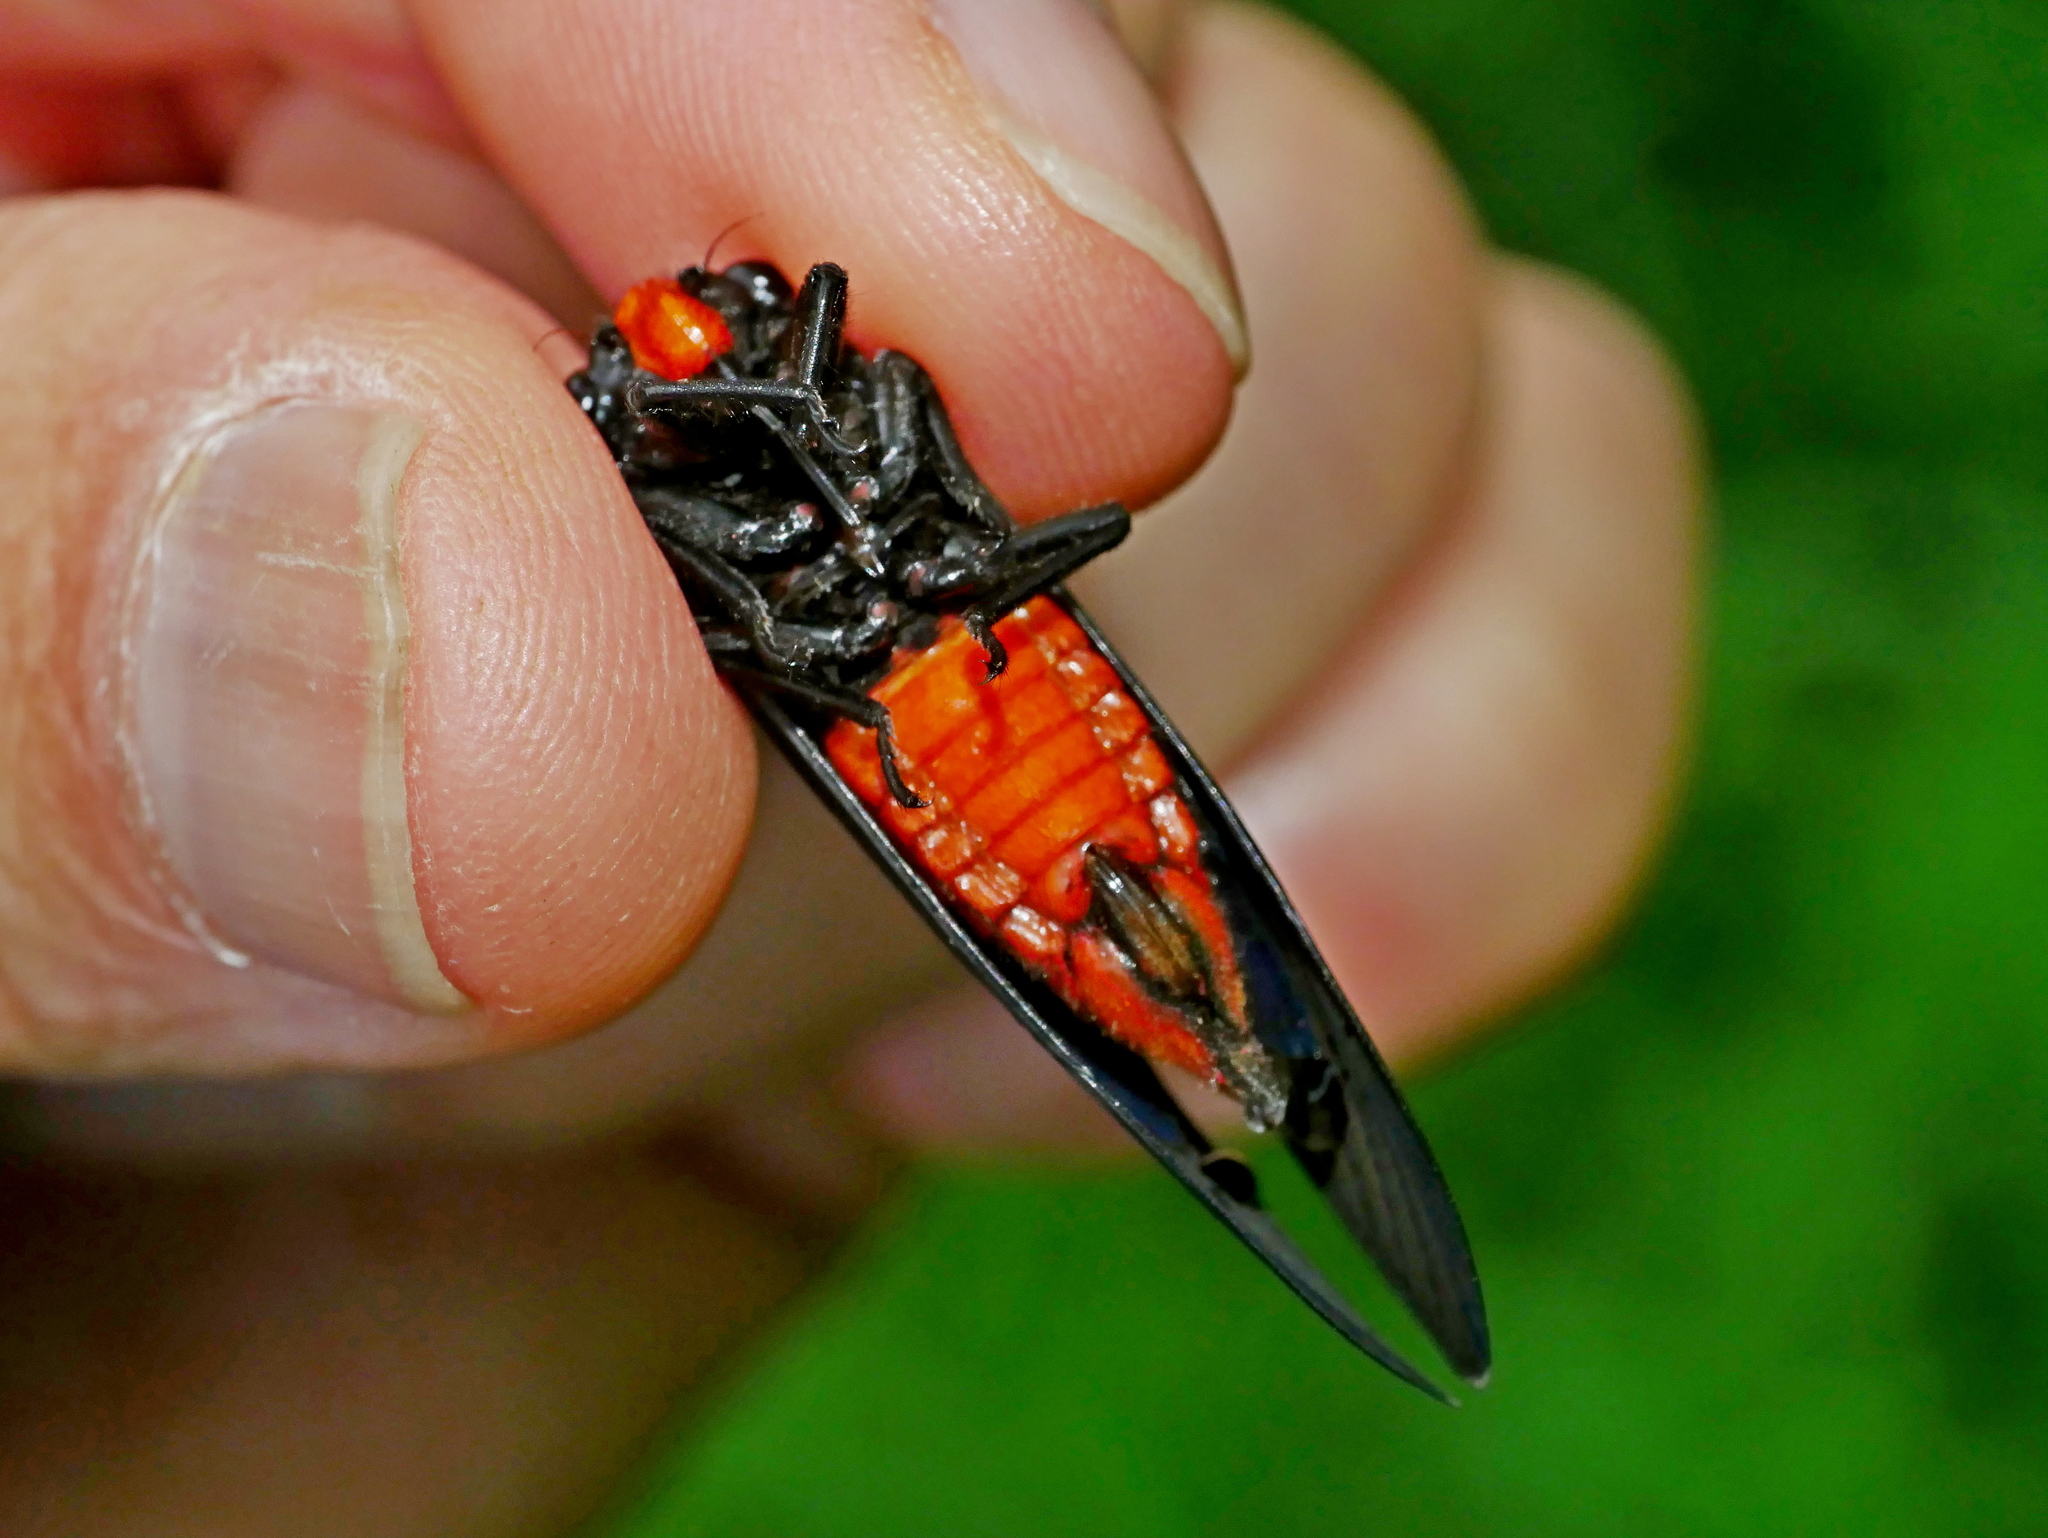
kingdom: Animalia
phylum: Arthropoda
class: Insecta
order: Hemiptera
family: Cicadidae
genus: Huechys
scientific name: Huechys sanguinea
